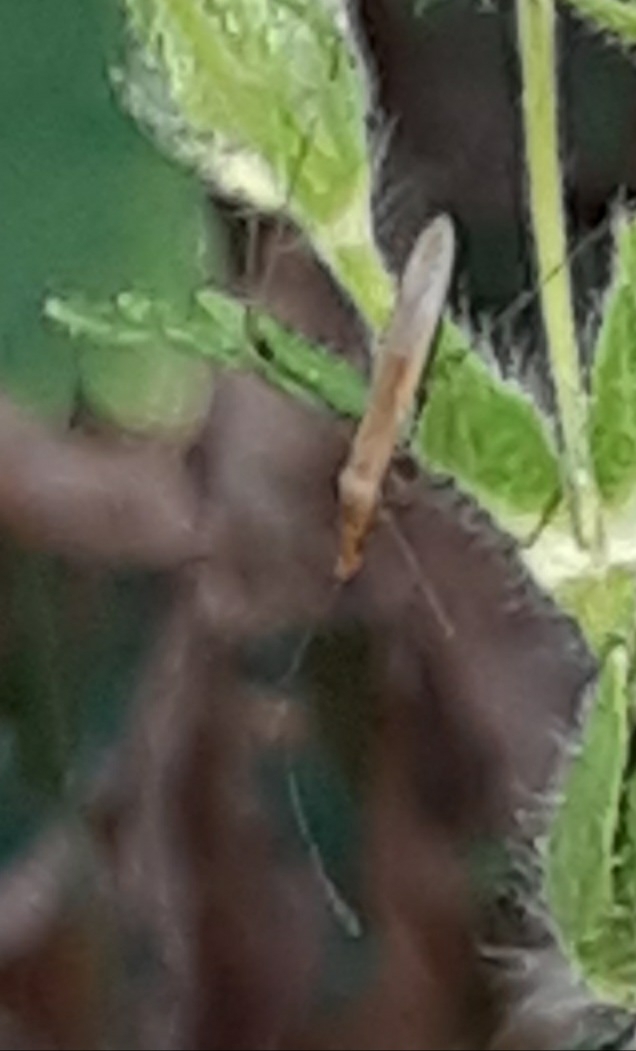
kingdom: Animalia
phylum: Arthropoda
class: Insecta
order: Hemiptera
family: Berytidae
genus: Jalysus
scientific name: Jalysus
